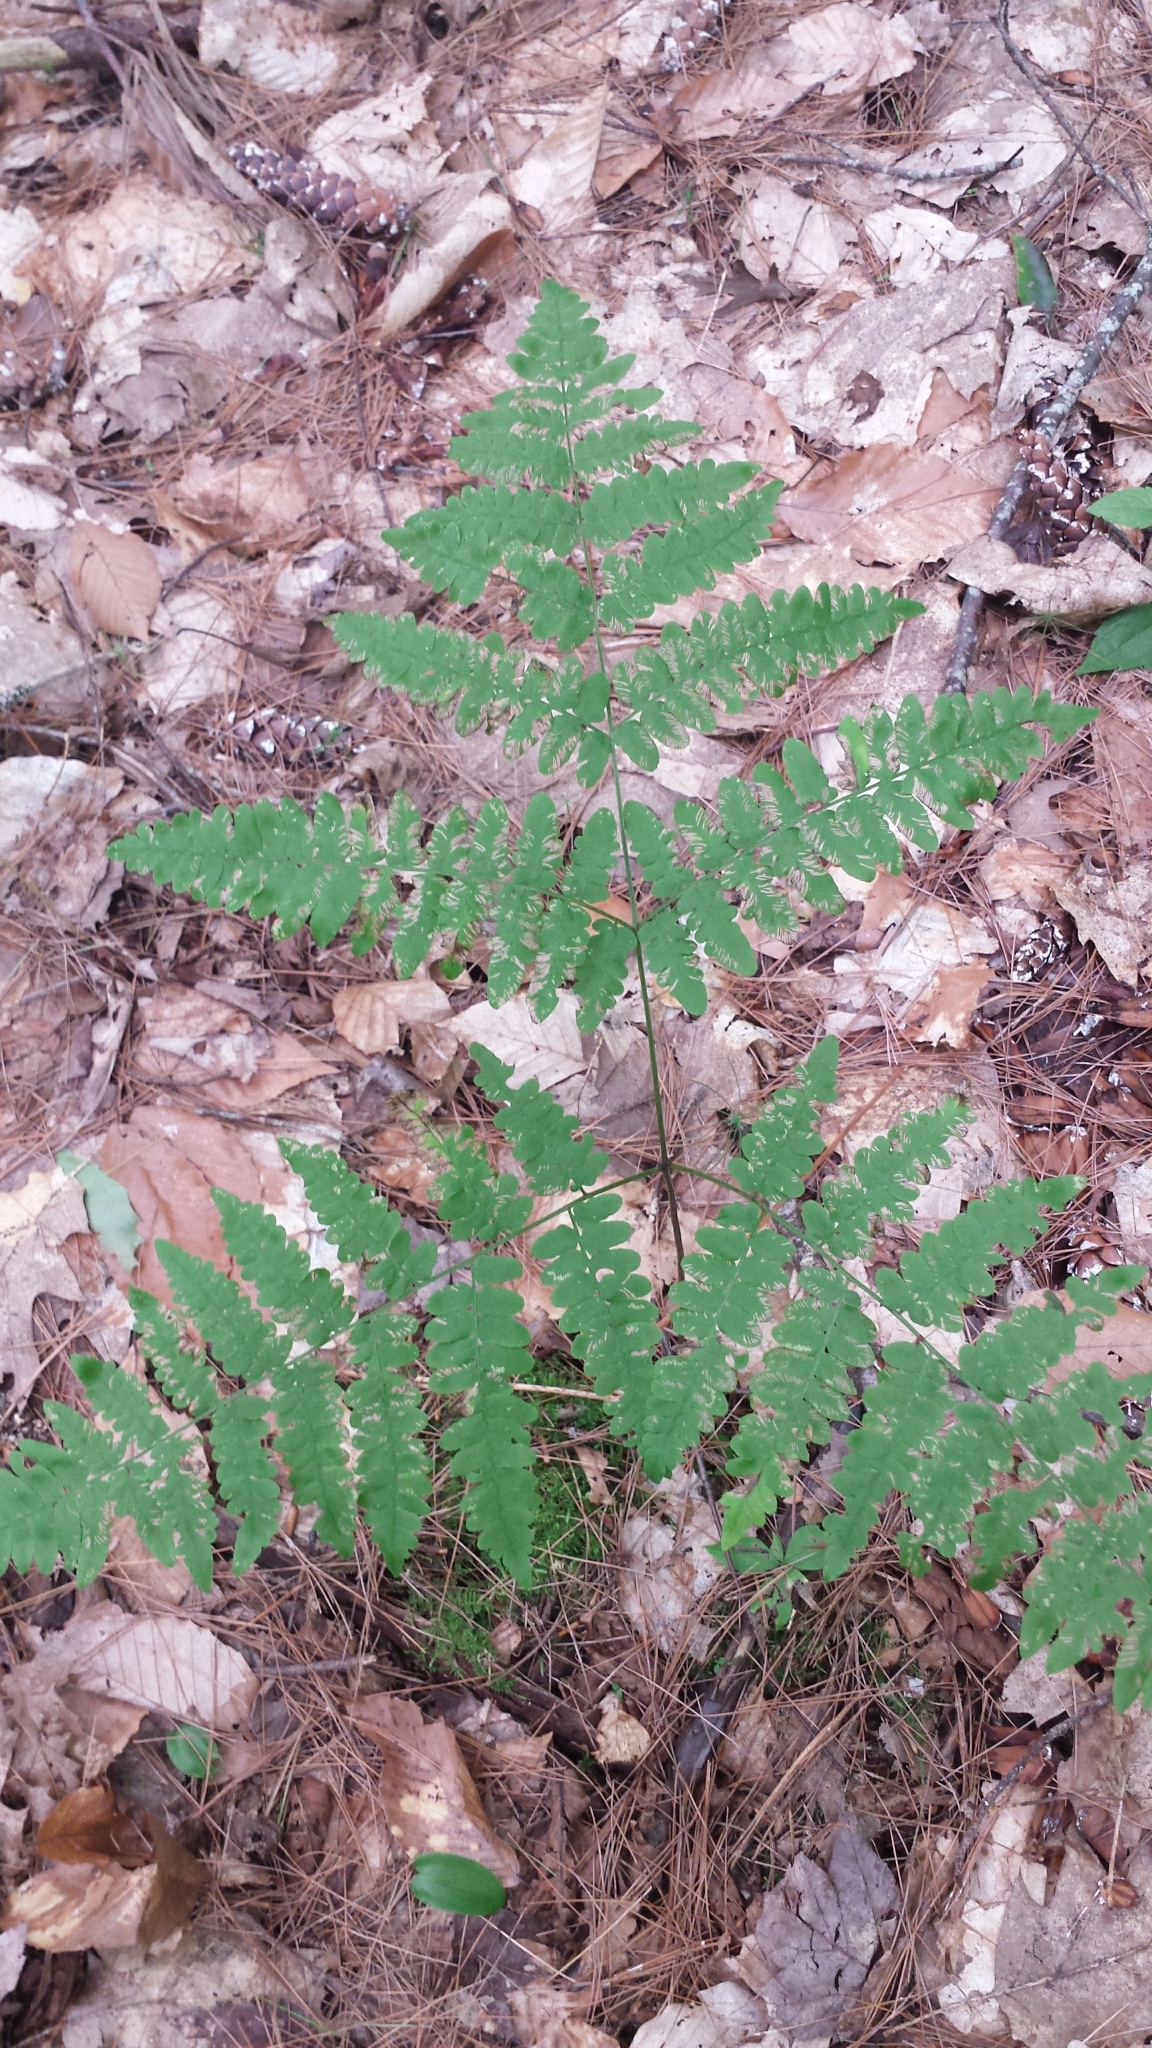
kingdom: Plantae
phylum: Tracheophyta
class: Polypodiopsida
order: Polypodiales
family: Dennstaedtiaceae
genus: Pteridium
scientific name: Pteridium aquilinum
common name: Bracken
